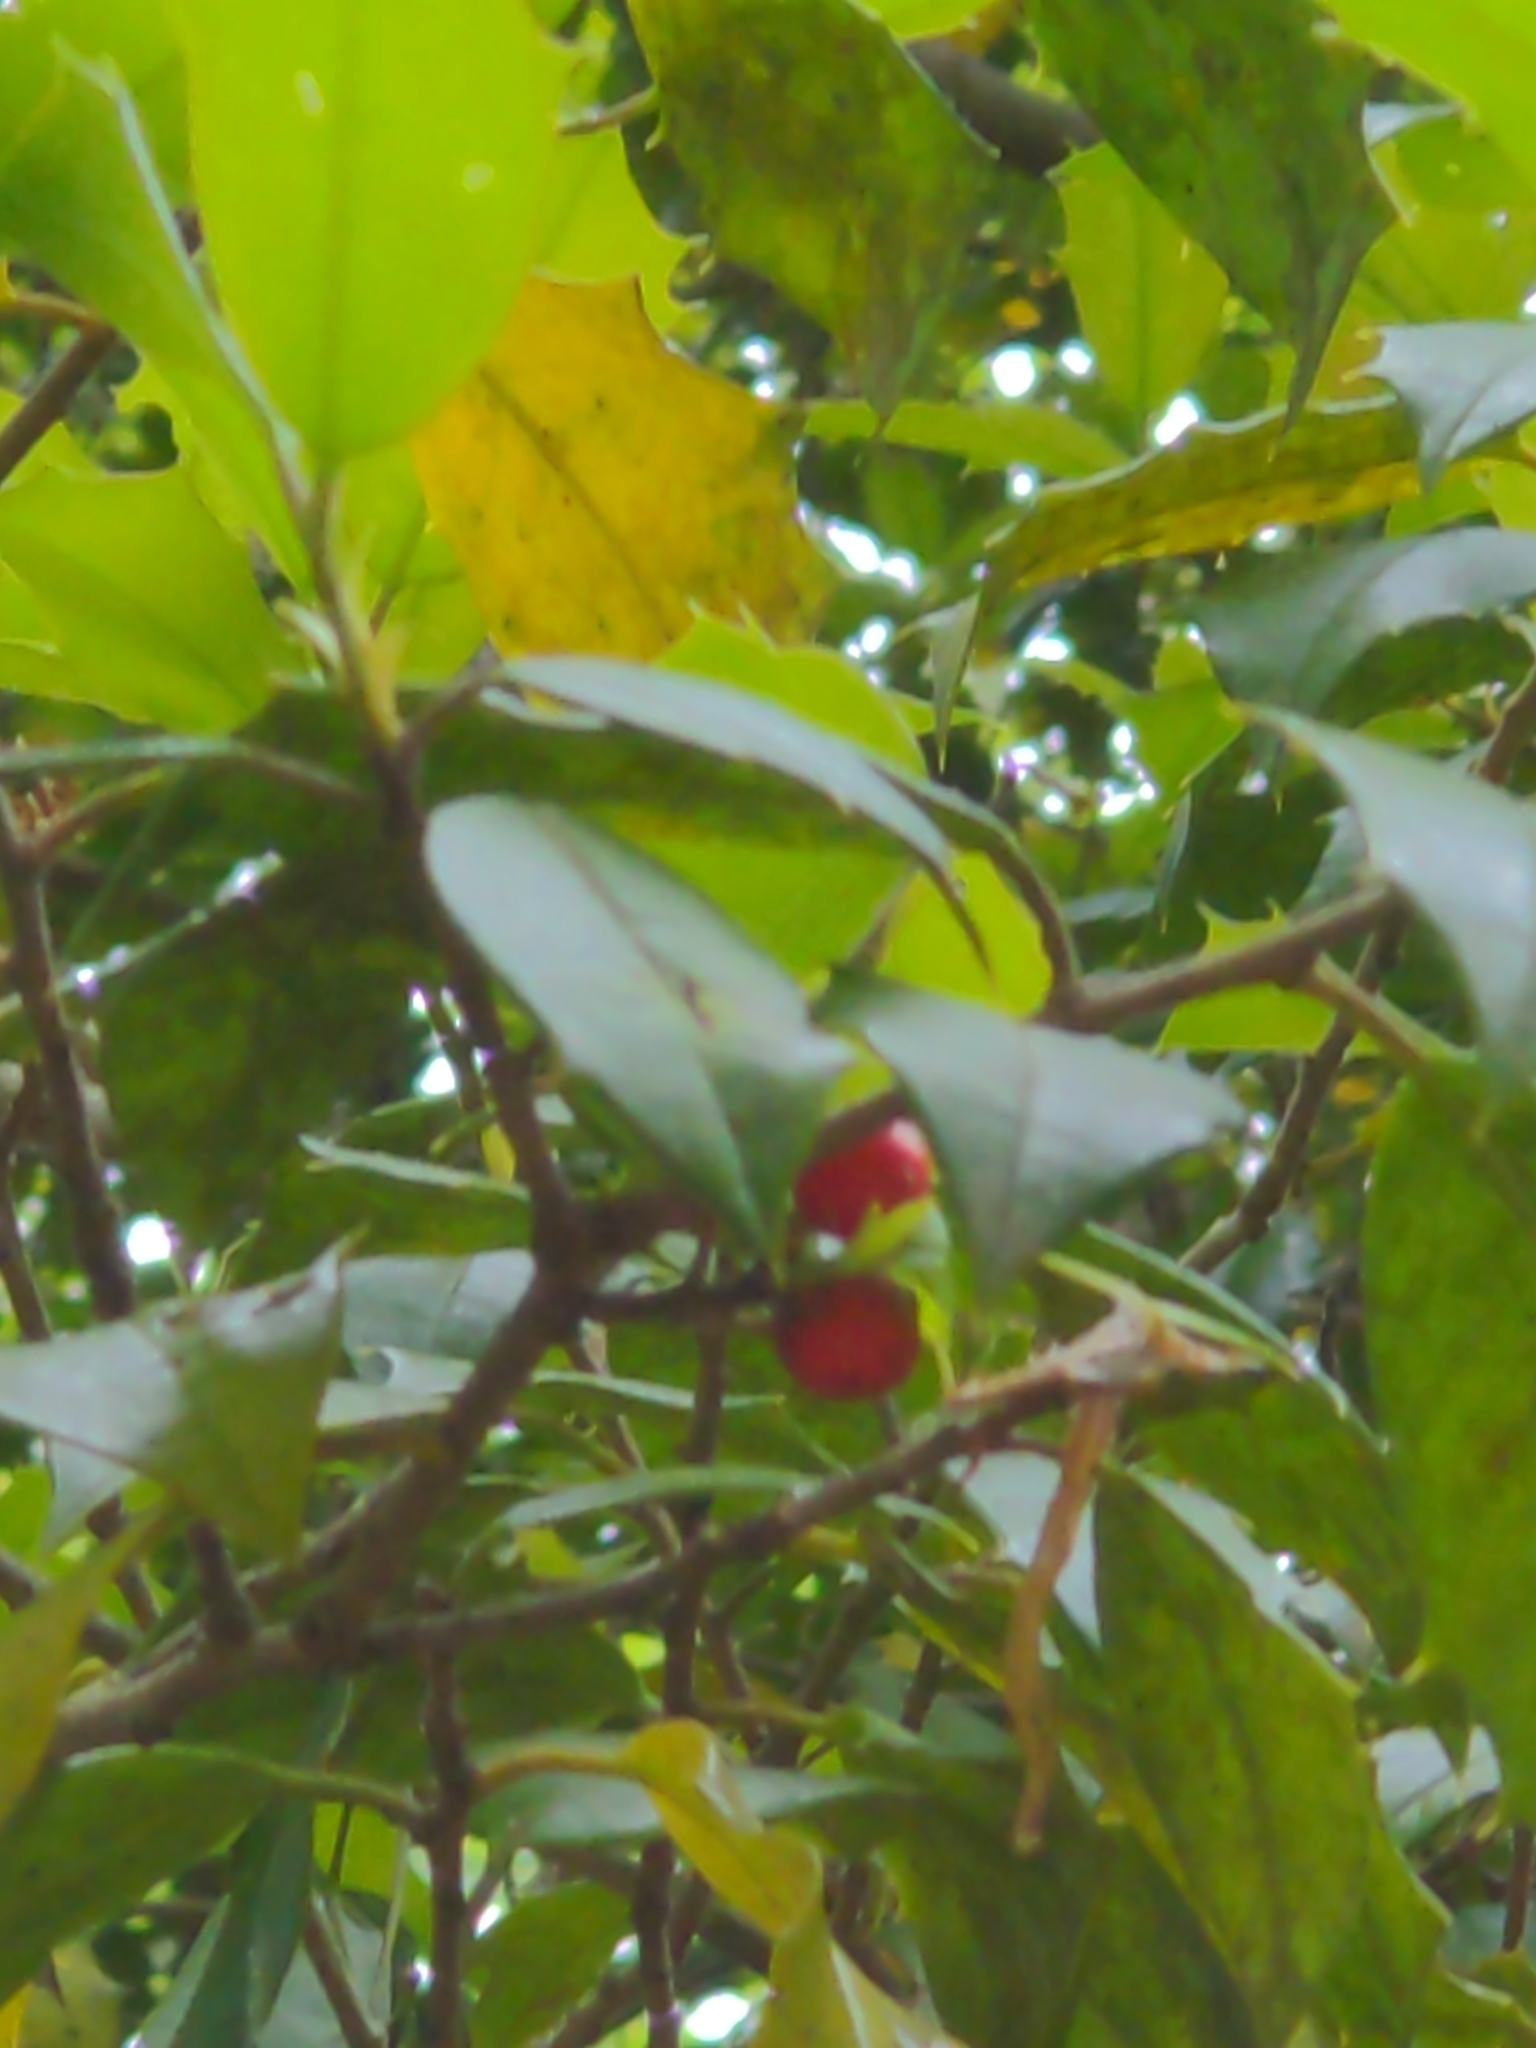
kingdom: Plantae
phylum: Tracheophyta
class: Magnoliopsida
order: Aquifoliales
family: Aquifoliaceae
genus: Ilex
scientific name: Ilex opaca
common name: American holly
